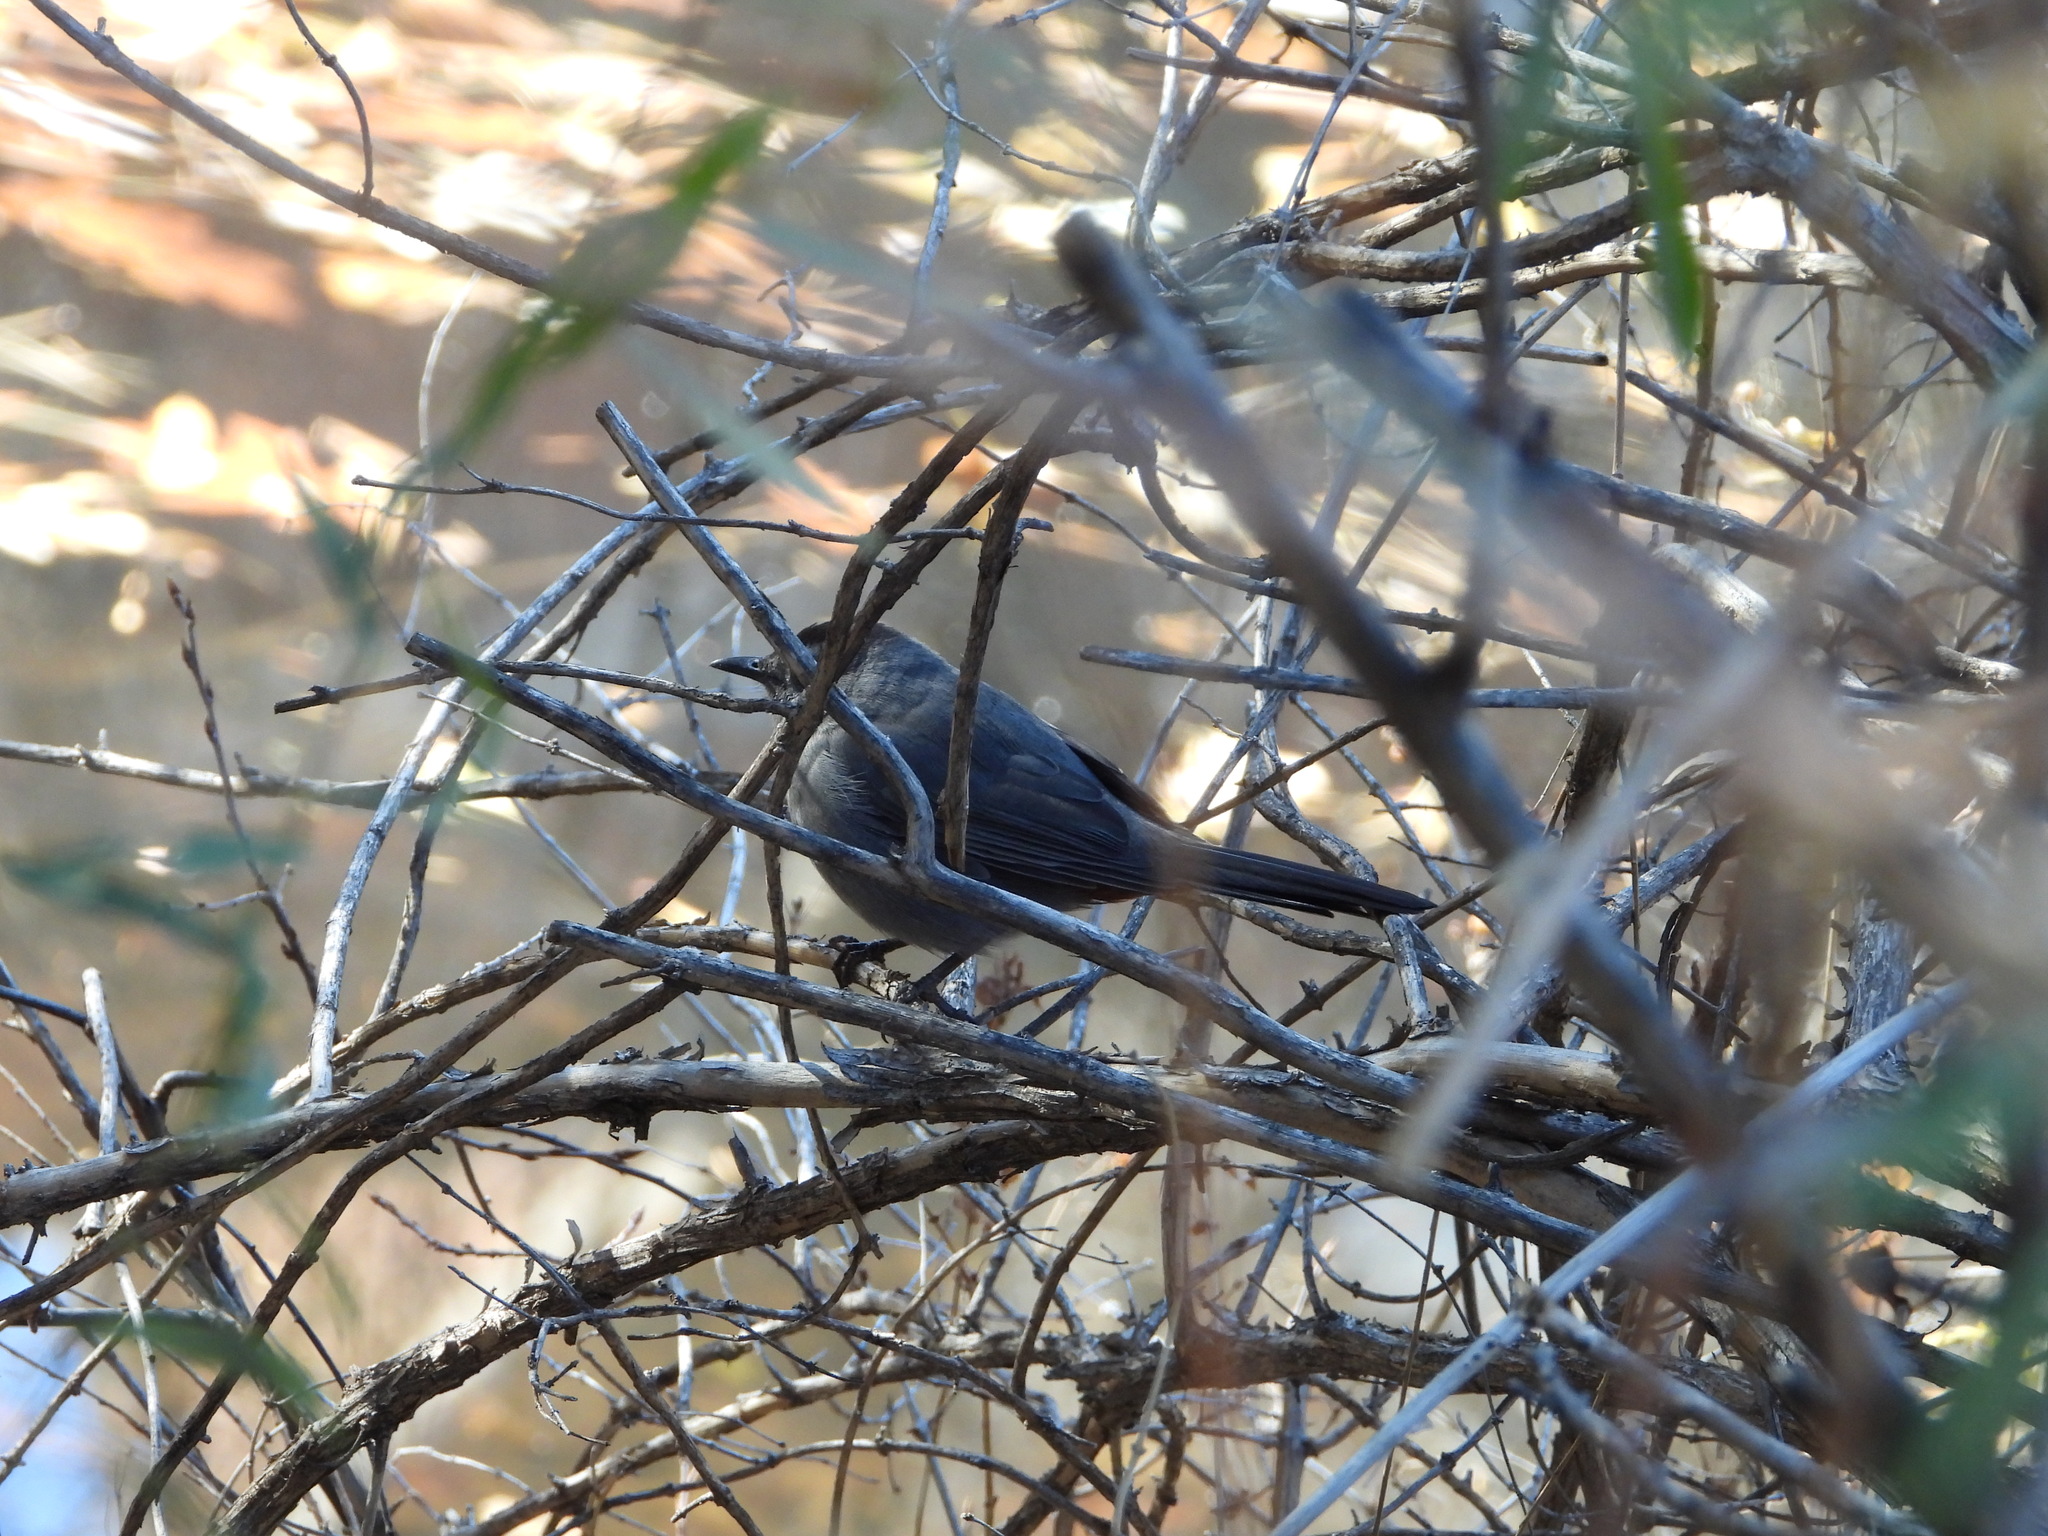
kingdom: Animalia
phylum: Chordata
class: Aves
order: Passeriformes
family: Mimidae
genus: Dumetella
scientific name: Dumetella carolinensis
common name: Gray catbird
